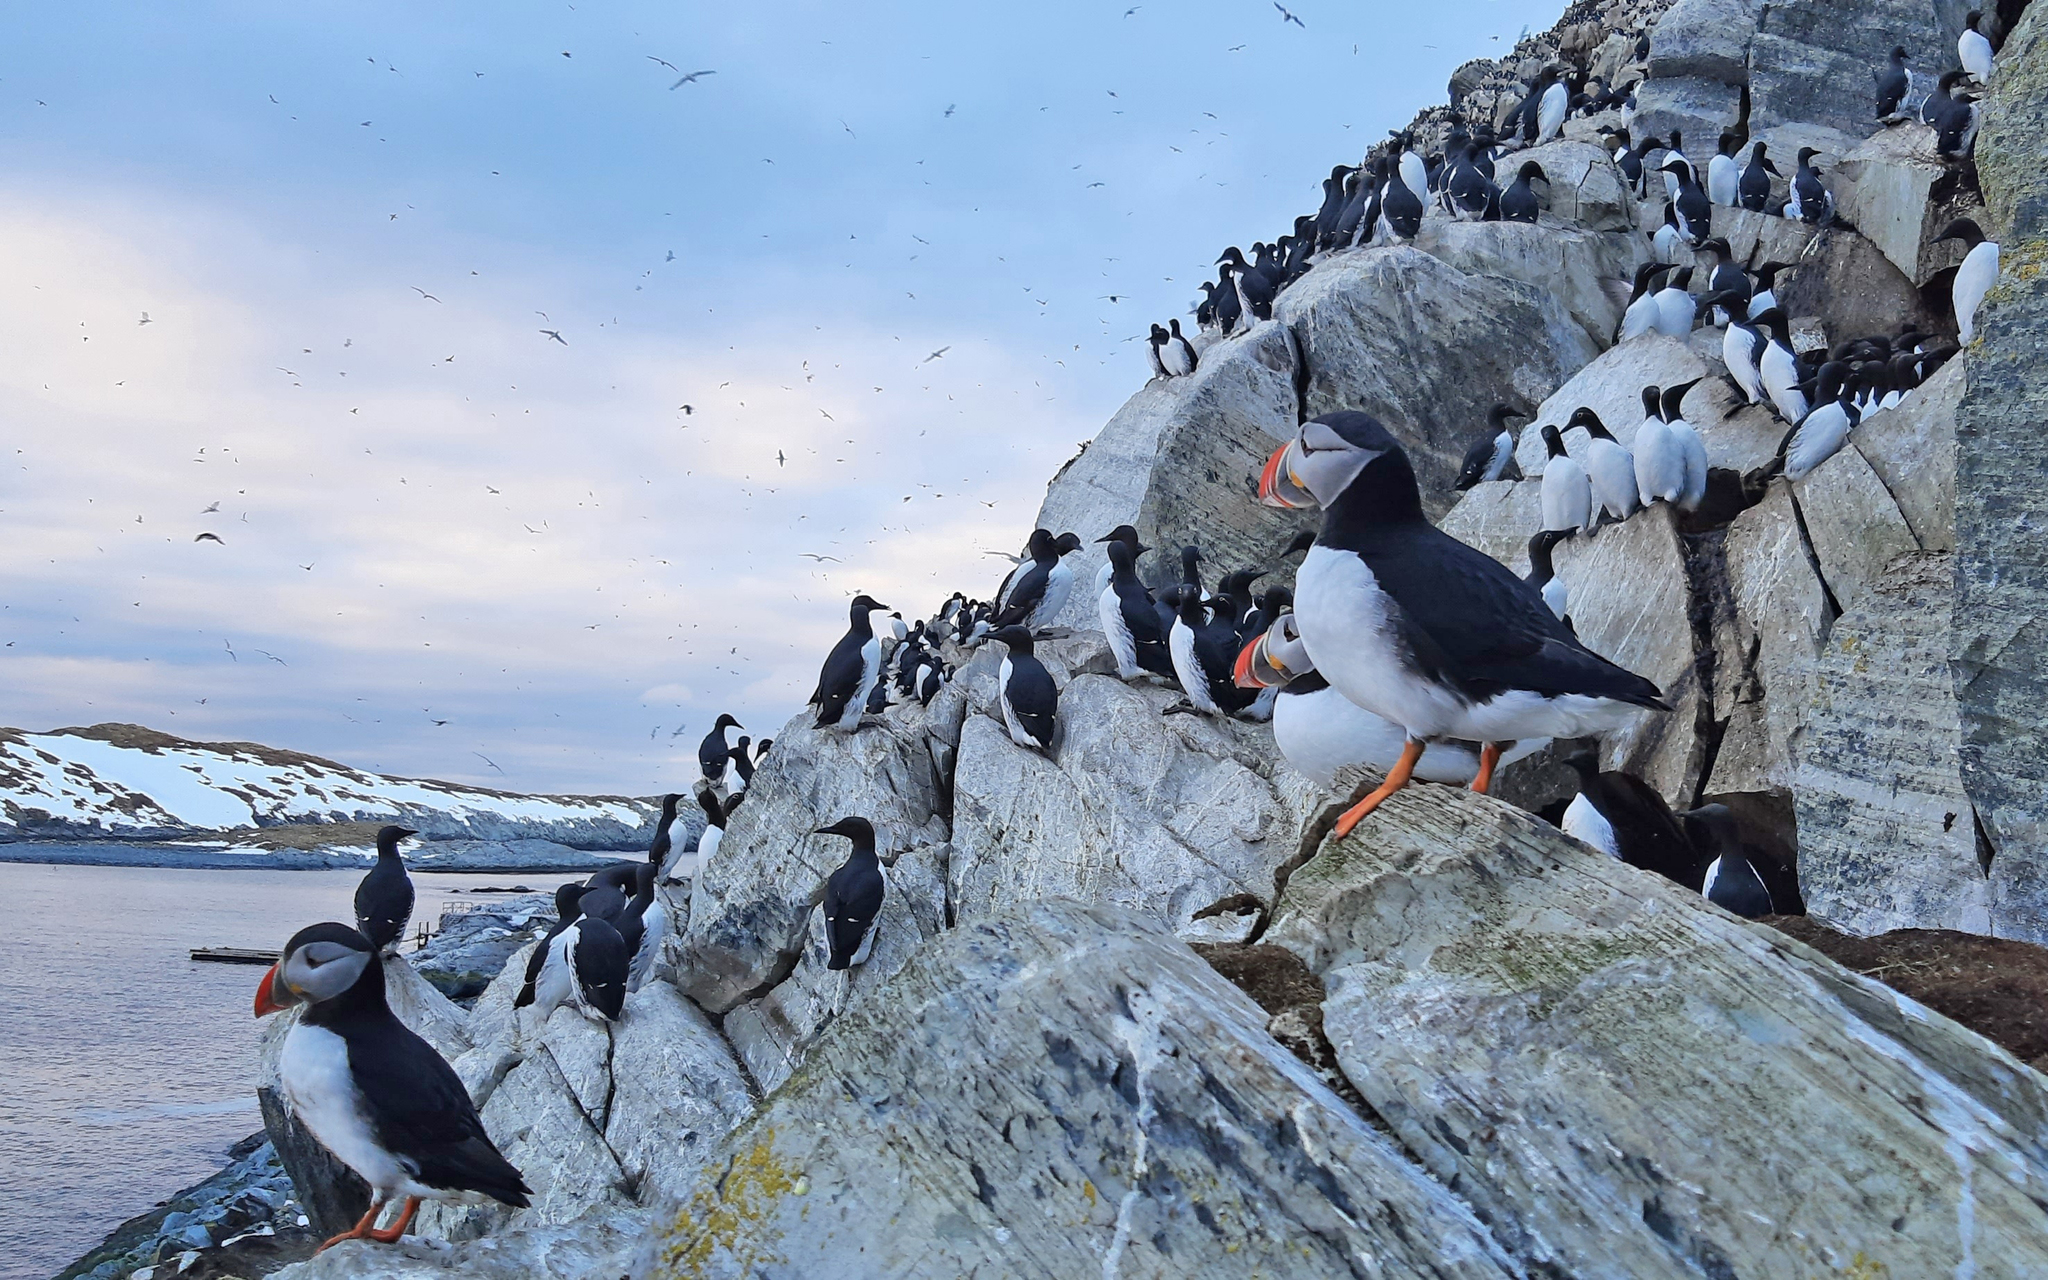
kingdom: Animalia
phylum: Chordata
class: Aves
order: Charadriiformes
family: Alcidae
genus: Fratercula
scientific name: Fratercula arctica
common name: Atlantic puffin
